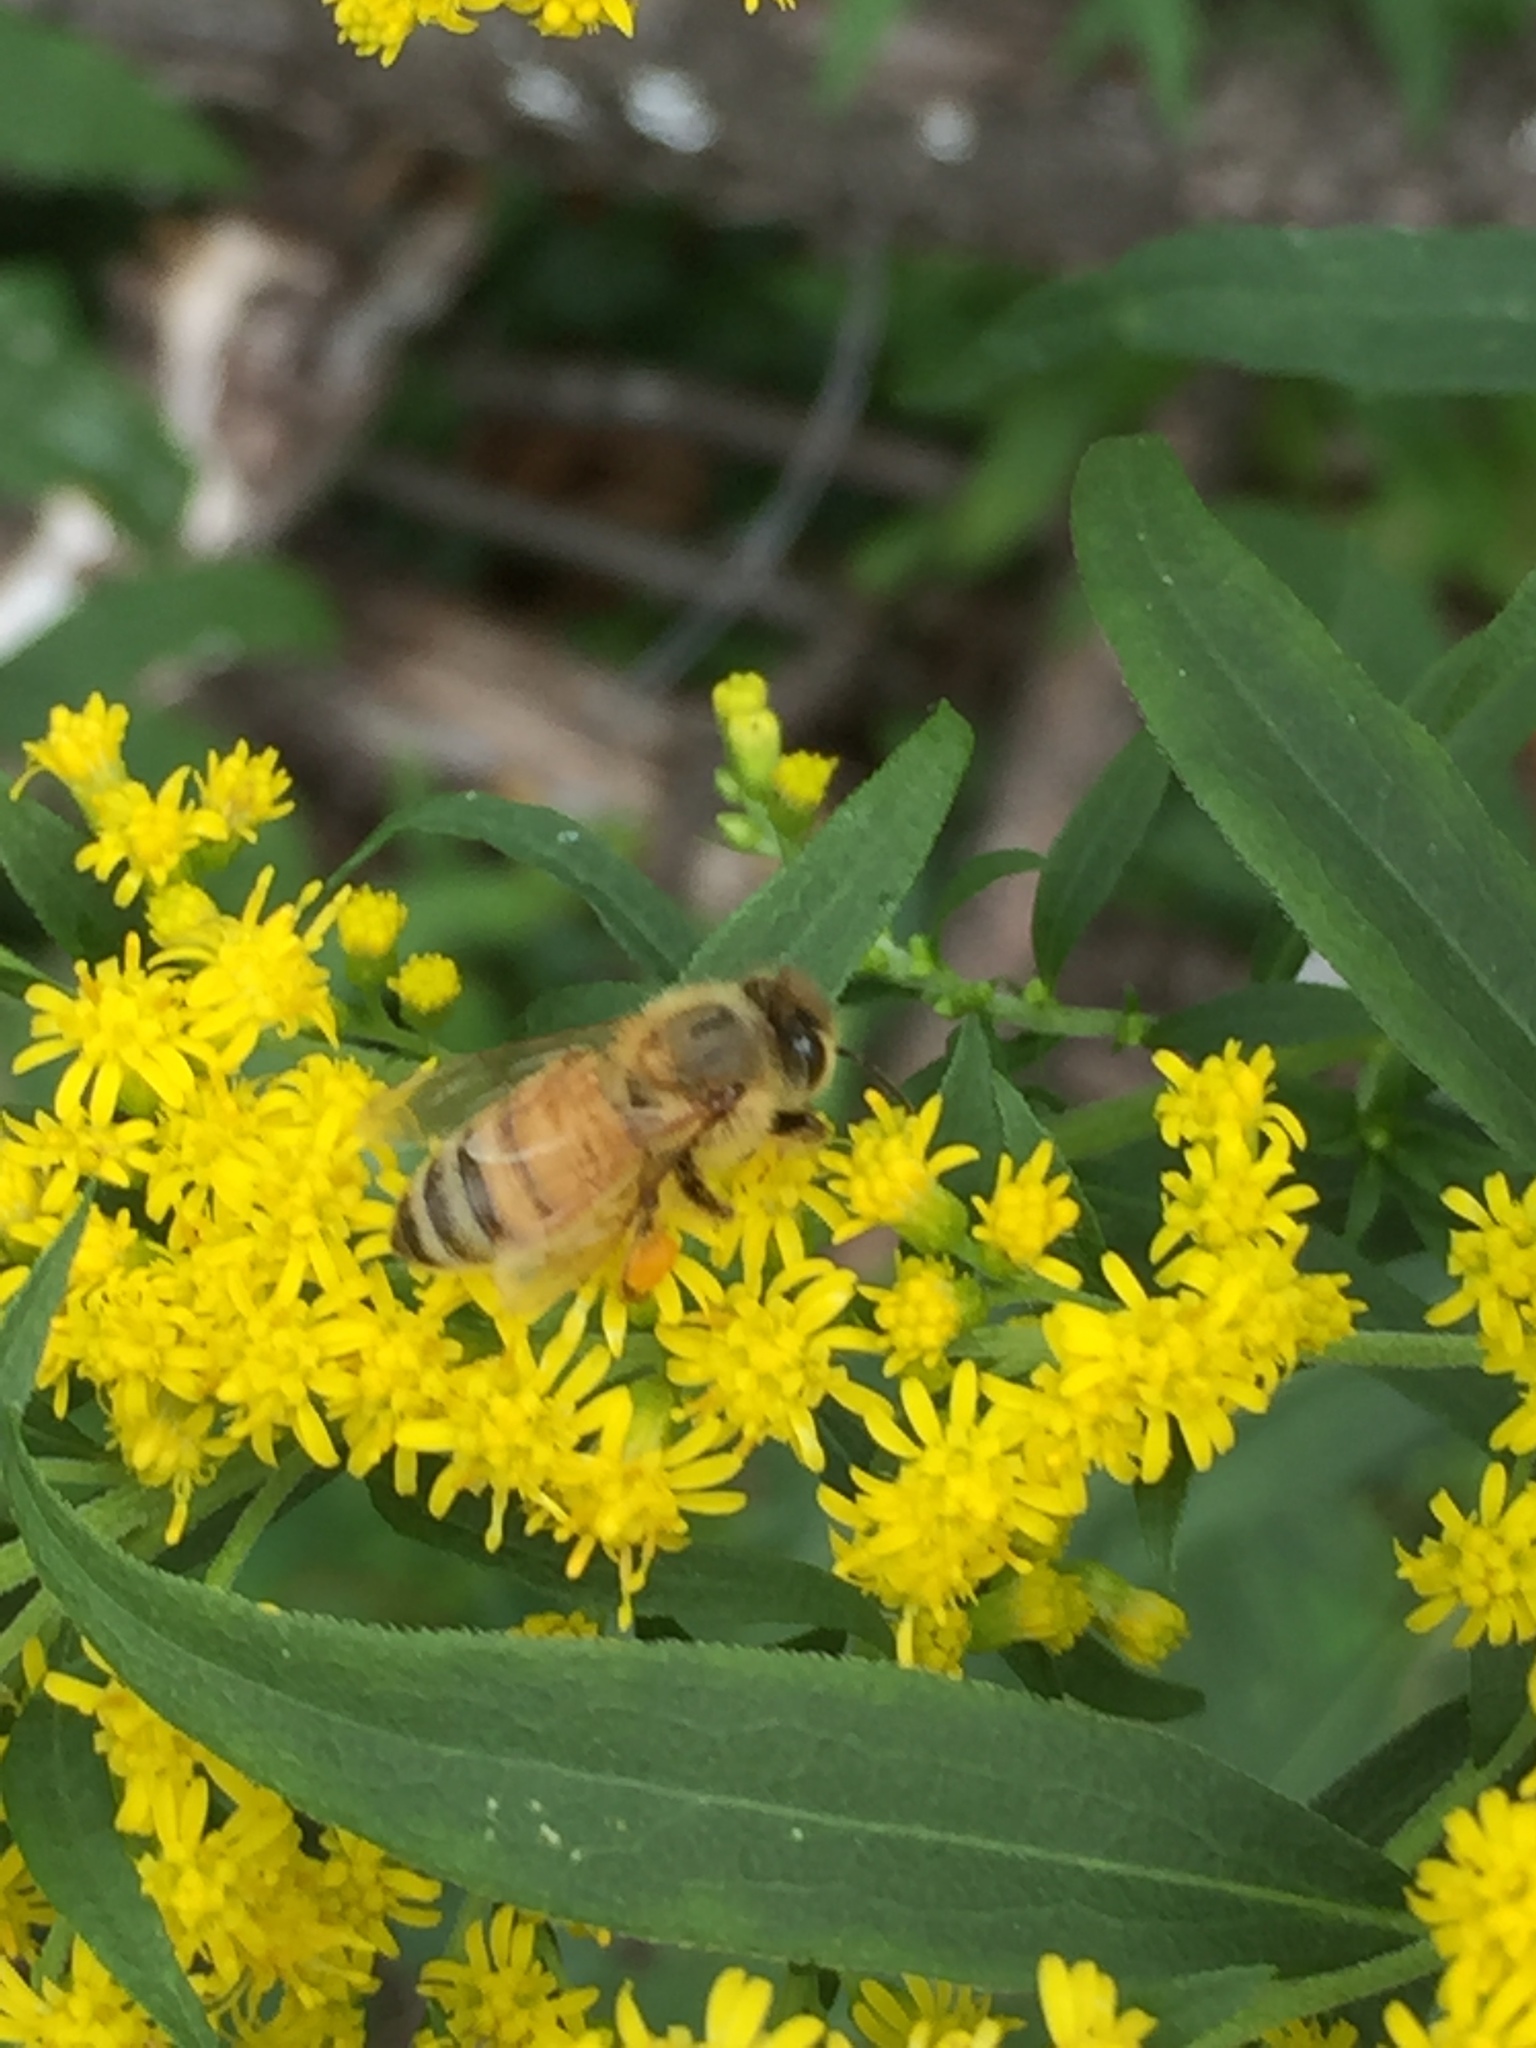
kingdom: Animalia
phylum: Arthropoda
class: Insecta
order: Hymenoptera
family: Apidae
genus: Apis
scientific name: Apis mellifera
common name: Honey bee
